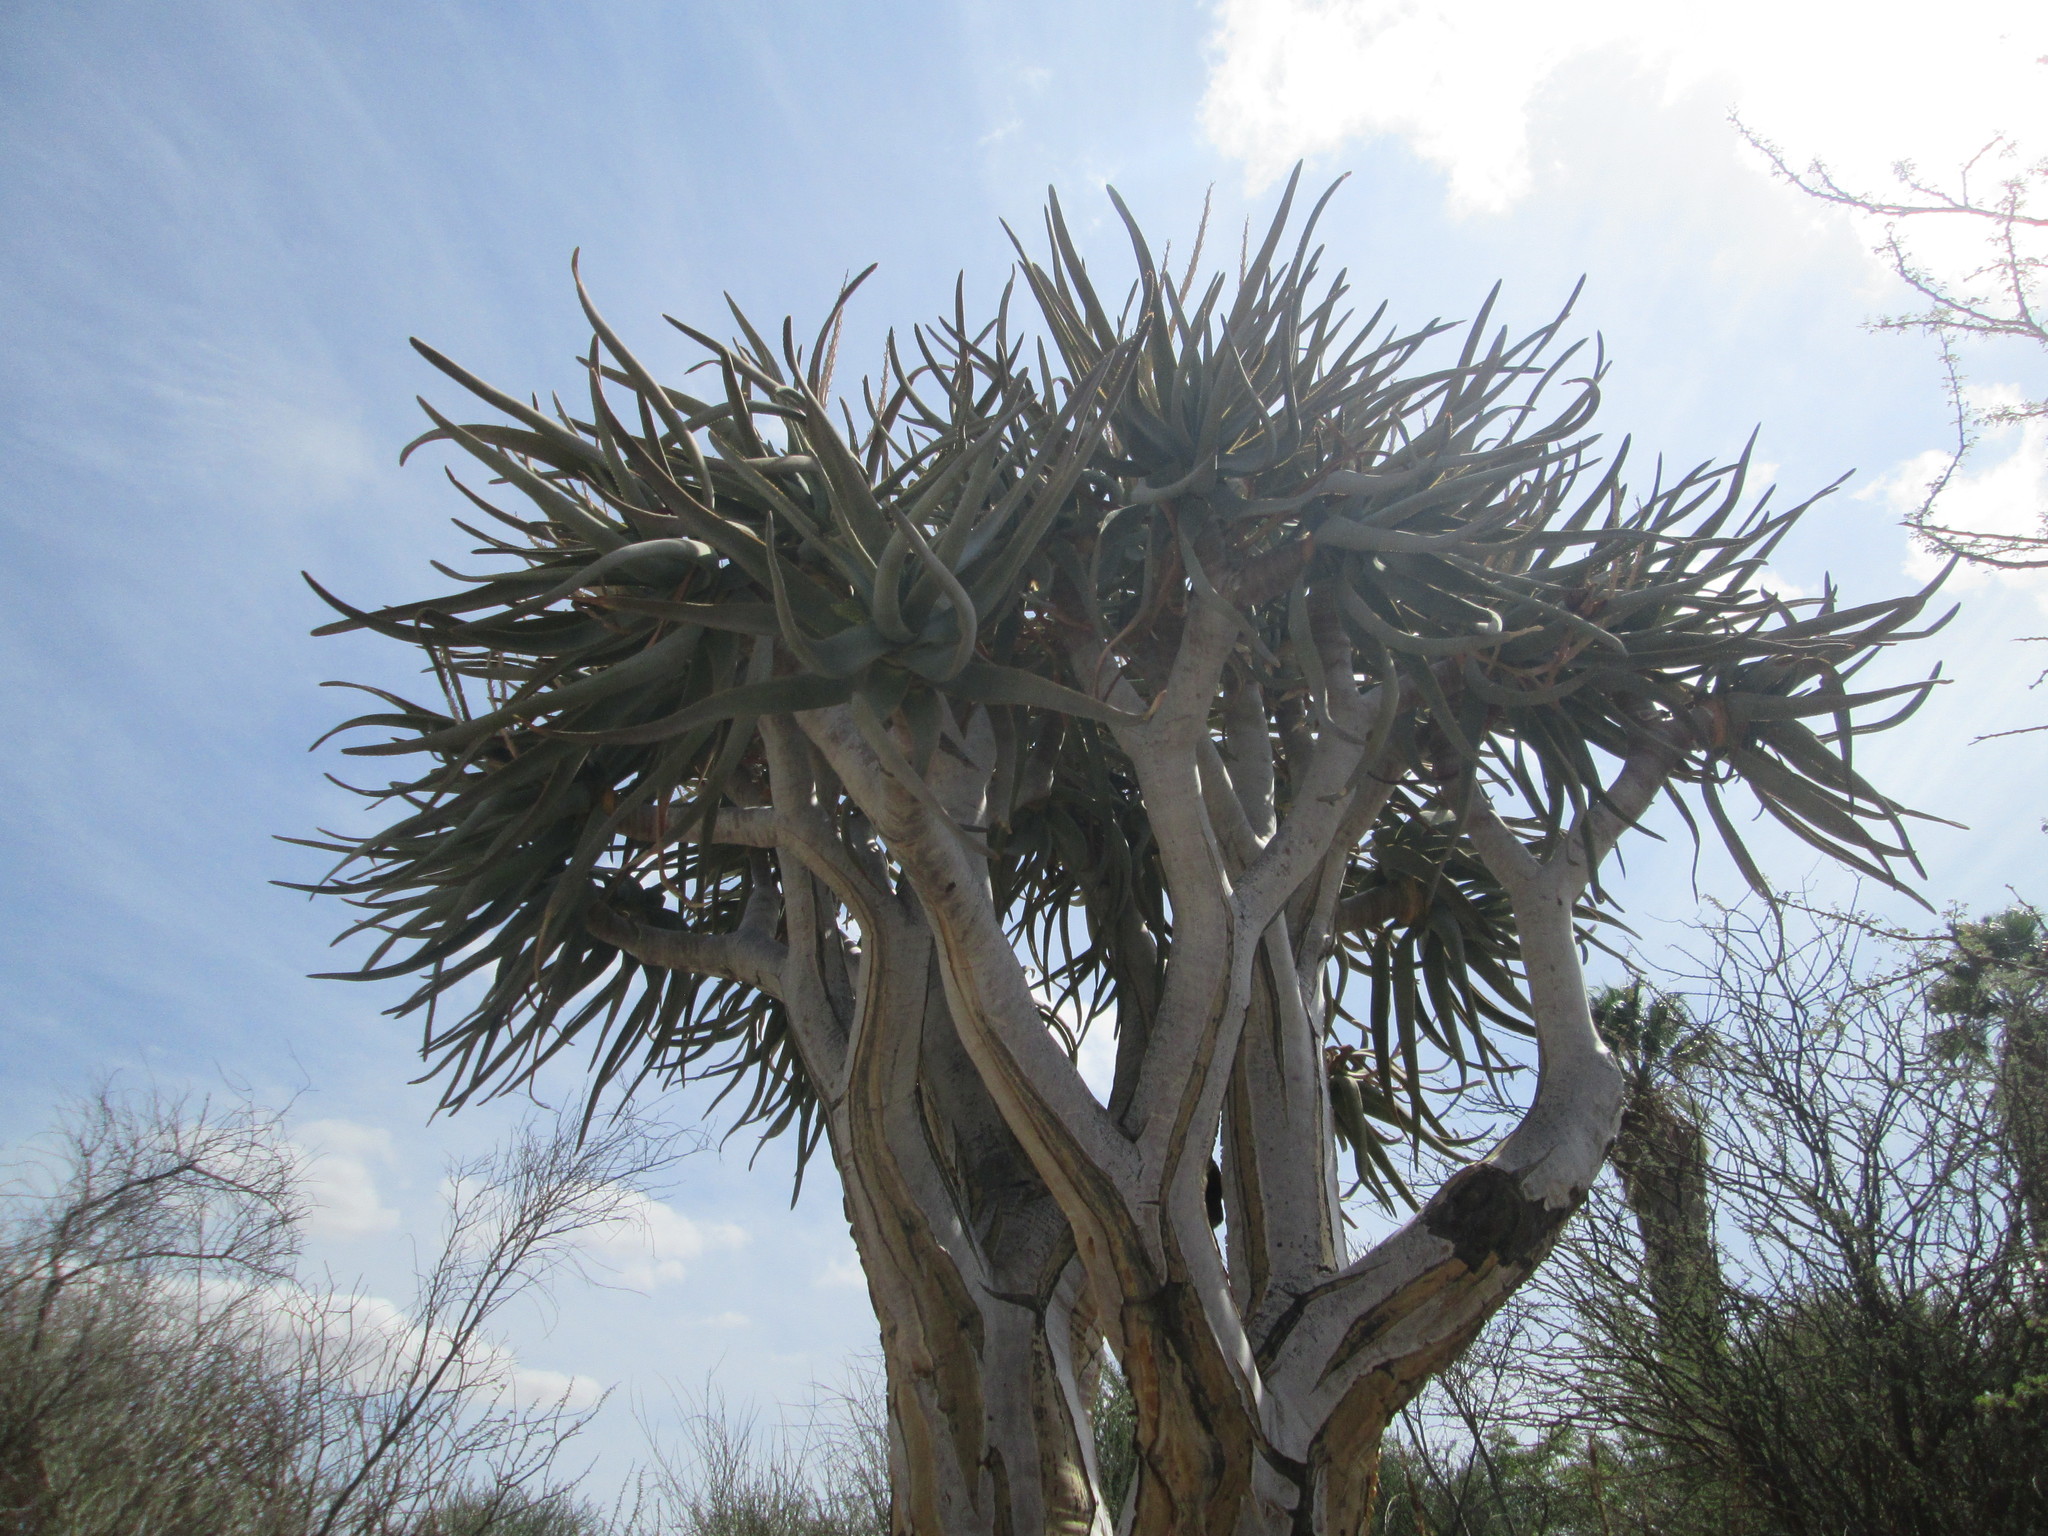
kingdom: Plantae
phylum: Tracheophyta
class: Liliopsida
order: Asparagales
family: Asphodelaceae
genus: Aloidendron
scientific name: Aloidendron dichotomum
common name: Quiver tree
